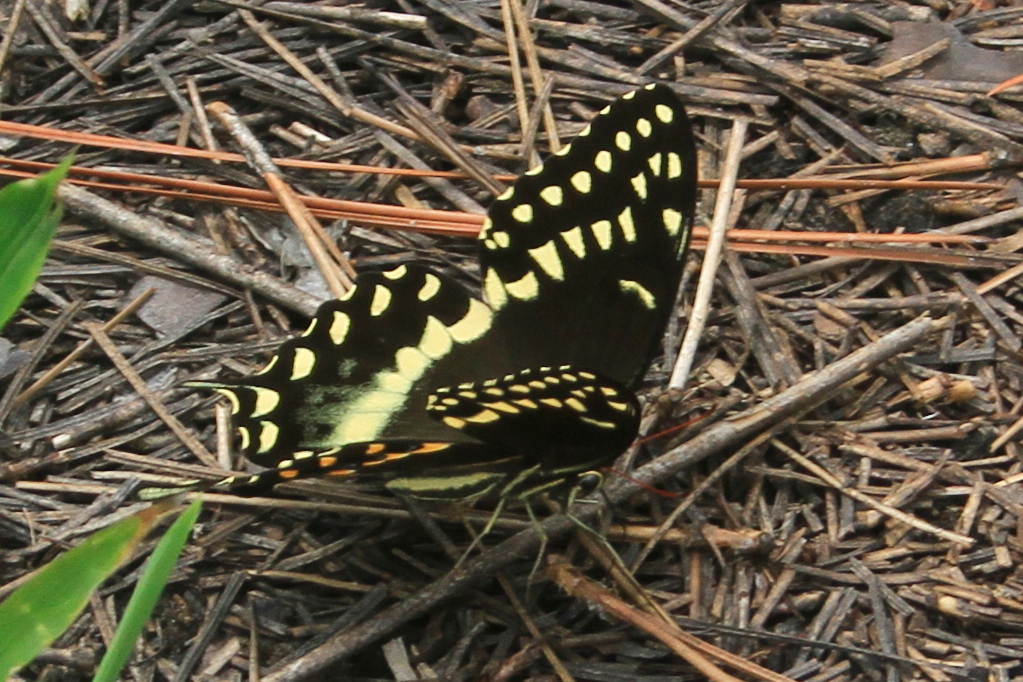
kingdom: Animalia
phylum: Arthropoda
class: Insecta
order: Lepidoptera
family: Papilionidae
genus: Papilio
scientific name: Papilio palamedes
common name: Palamedes swallowtail
